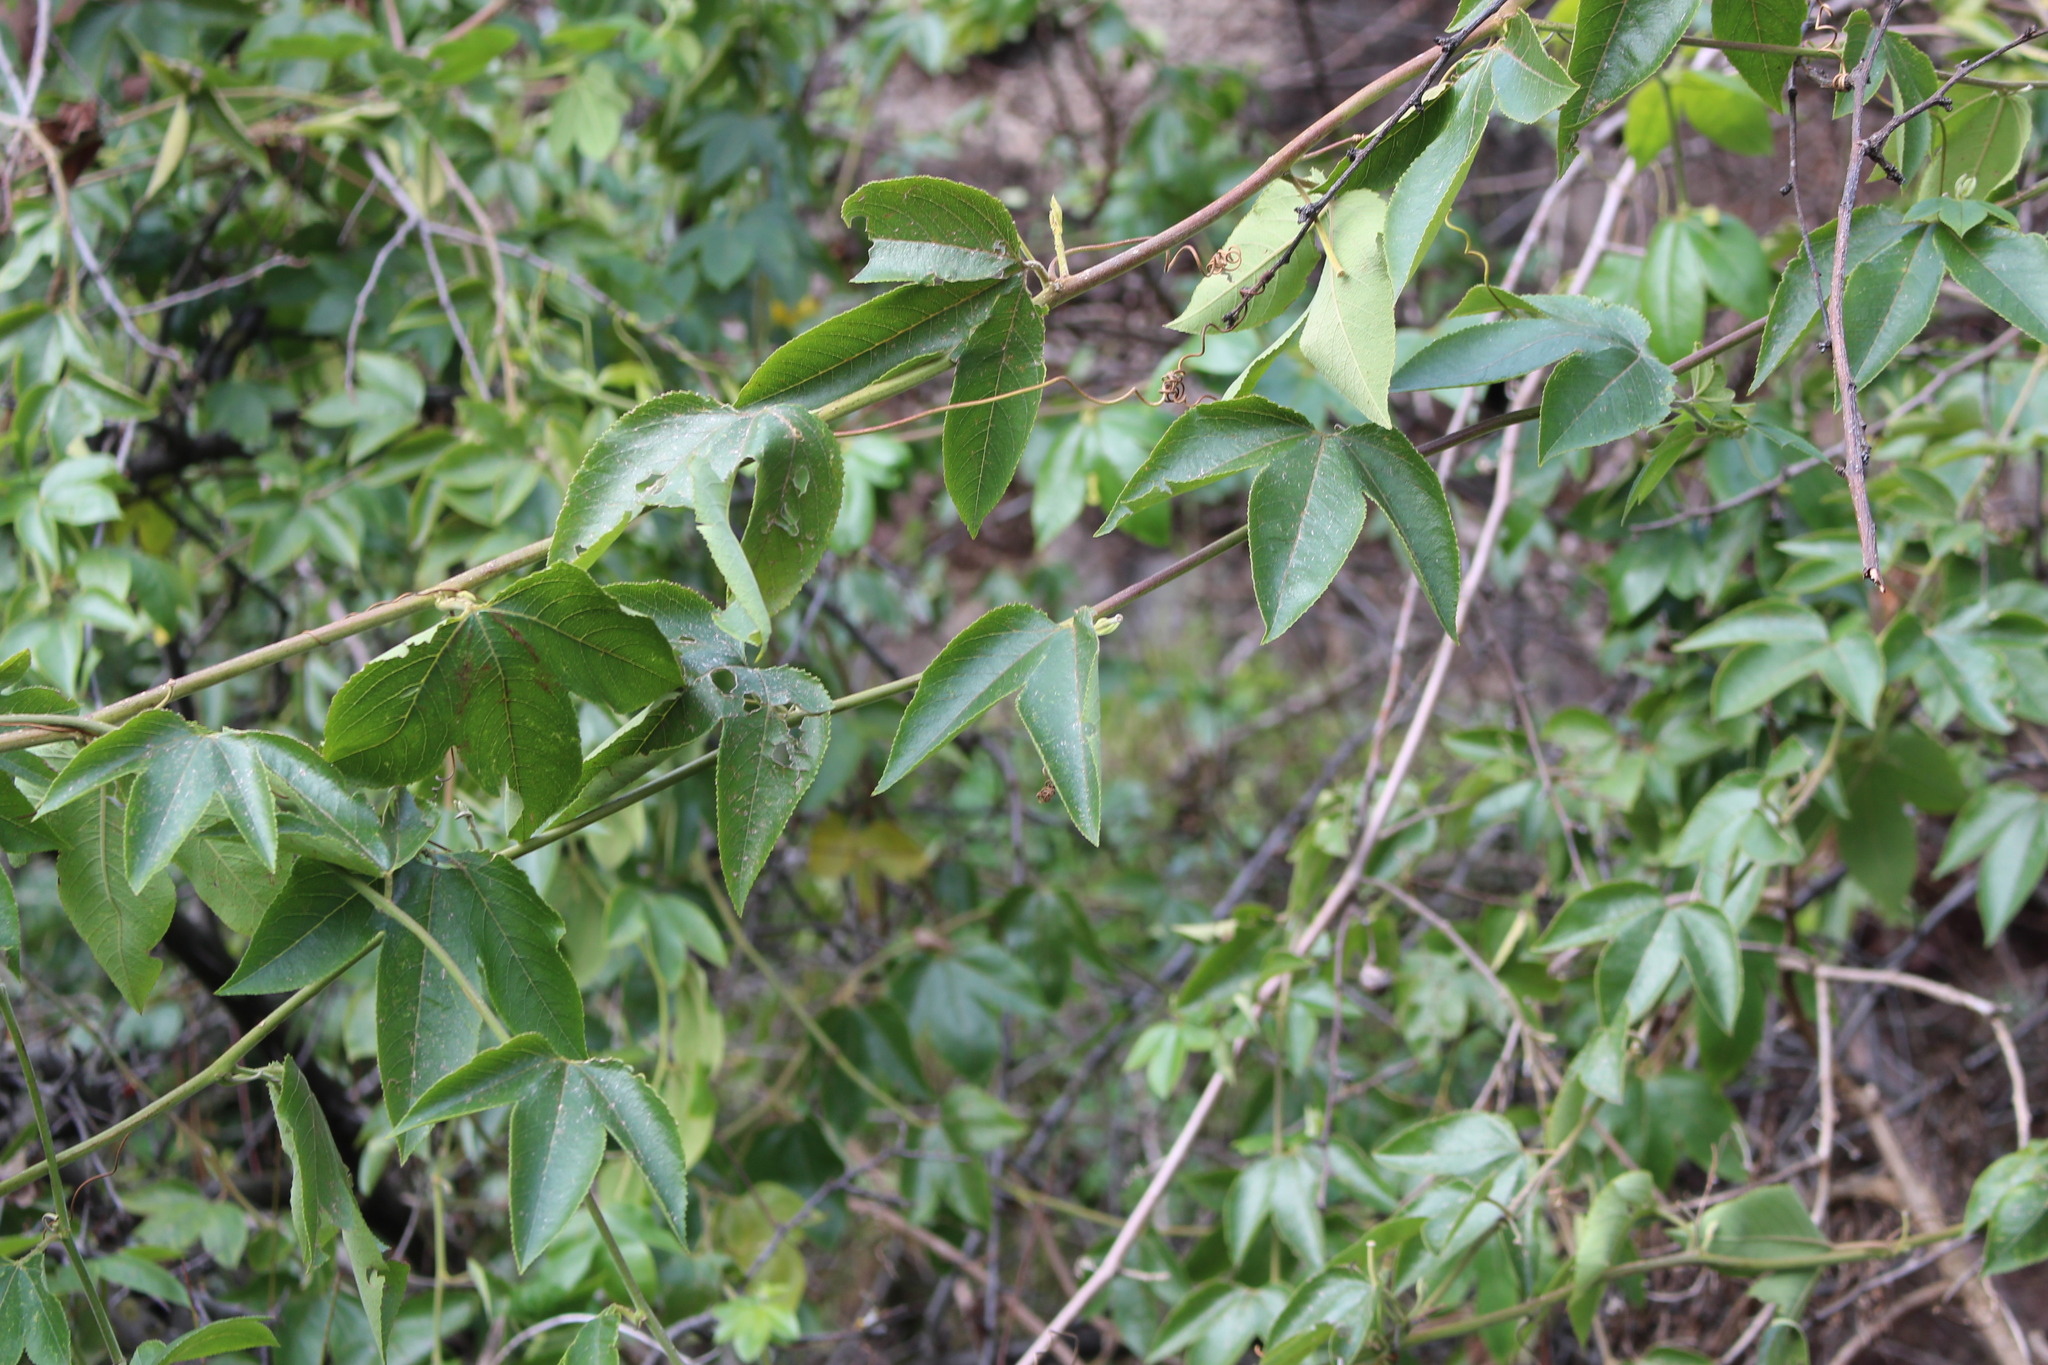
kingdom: Plantae
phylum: Tracheophyta
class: Magnoliopsida
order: Malpighiales
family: Passifloraceae
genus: Passiflora
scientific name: Passiflora tripartita
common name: Banana poka
